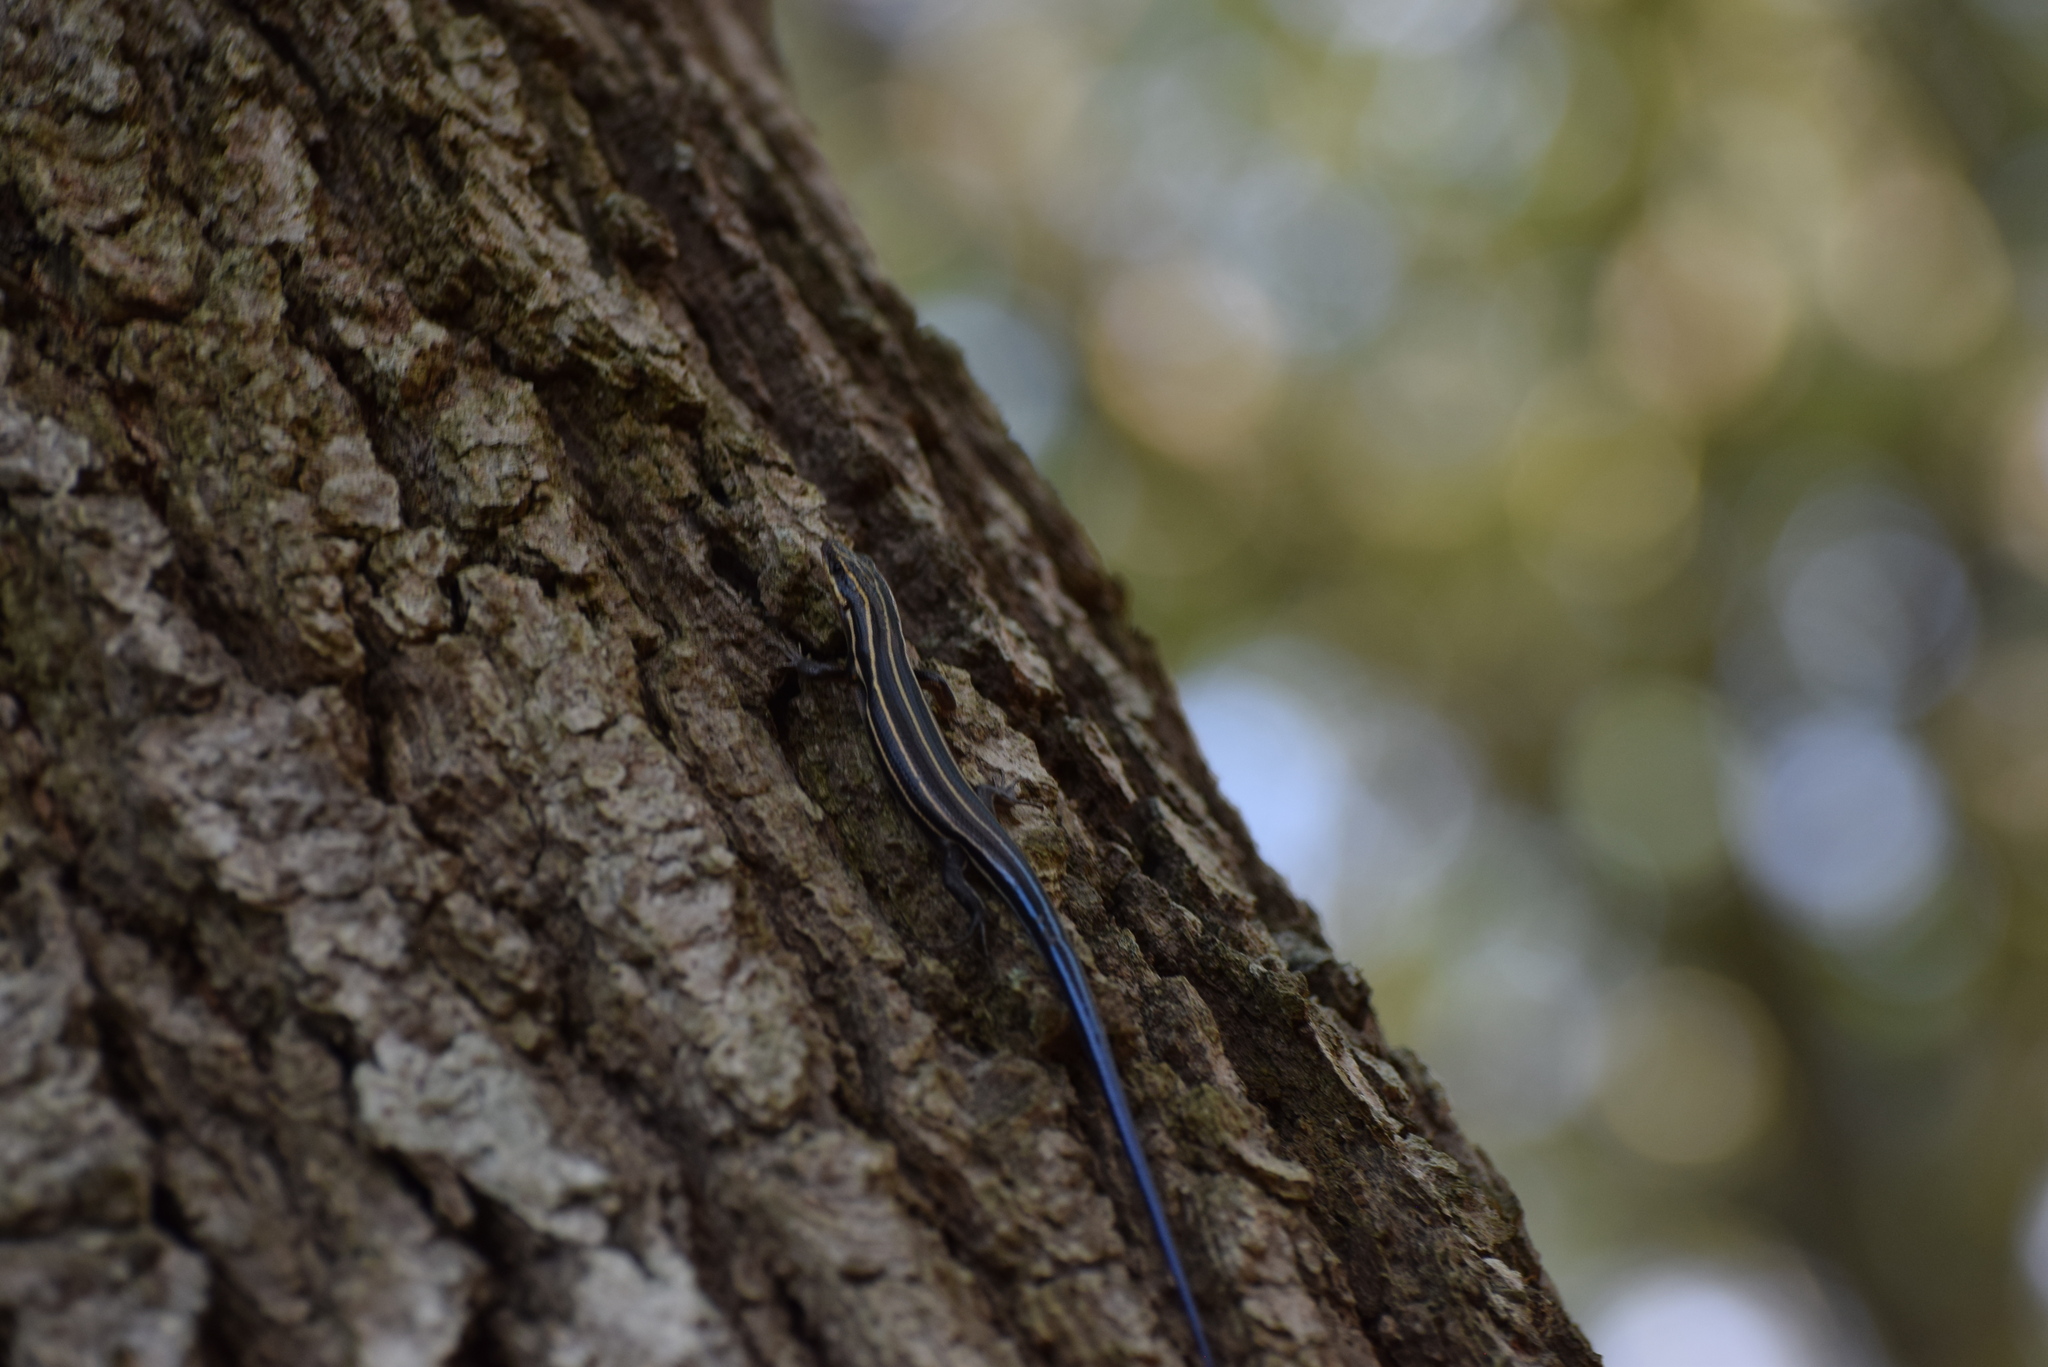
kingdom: Animalia
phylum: Chordata
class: Squamata
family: Scincidae
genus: Plestiodon
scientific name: Plestiodon fasciatus
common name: Five-lined skink
